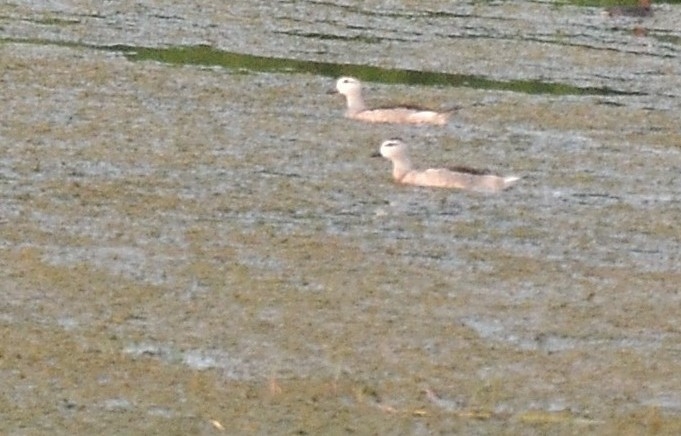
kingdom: Animalia
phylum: Chordata
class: Aves
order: Anseriformes
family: Anatidae
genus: Nettapus
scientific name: Nettapus coromandelianus
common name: Cotton pygmy-goose
